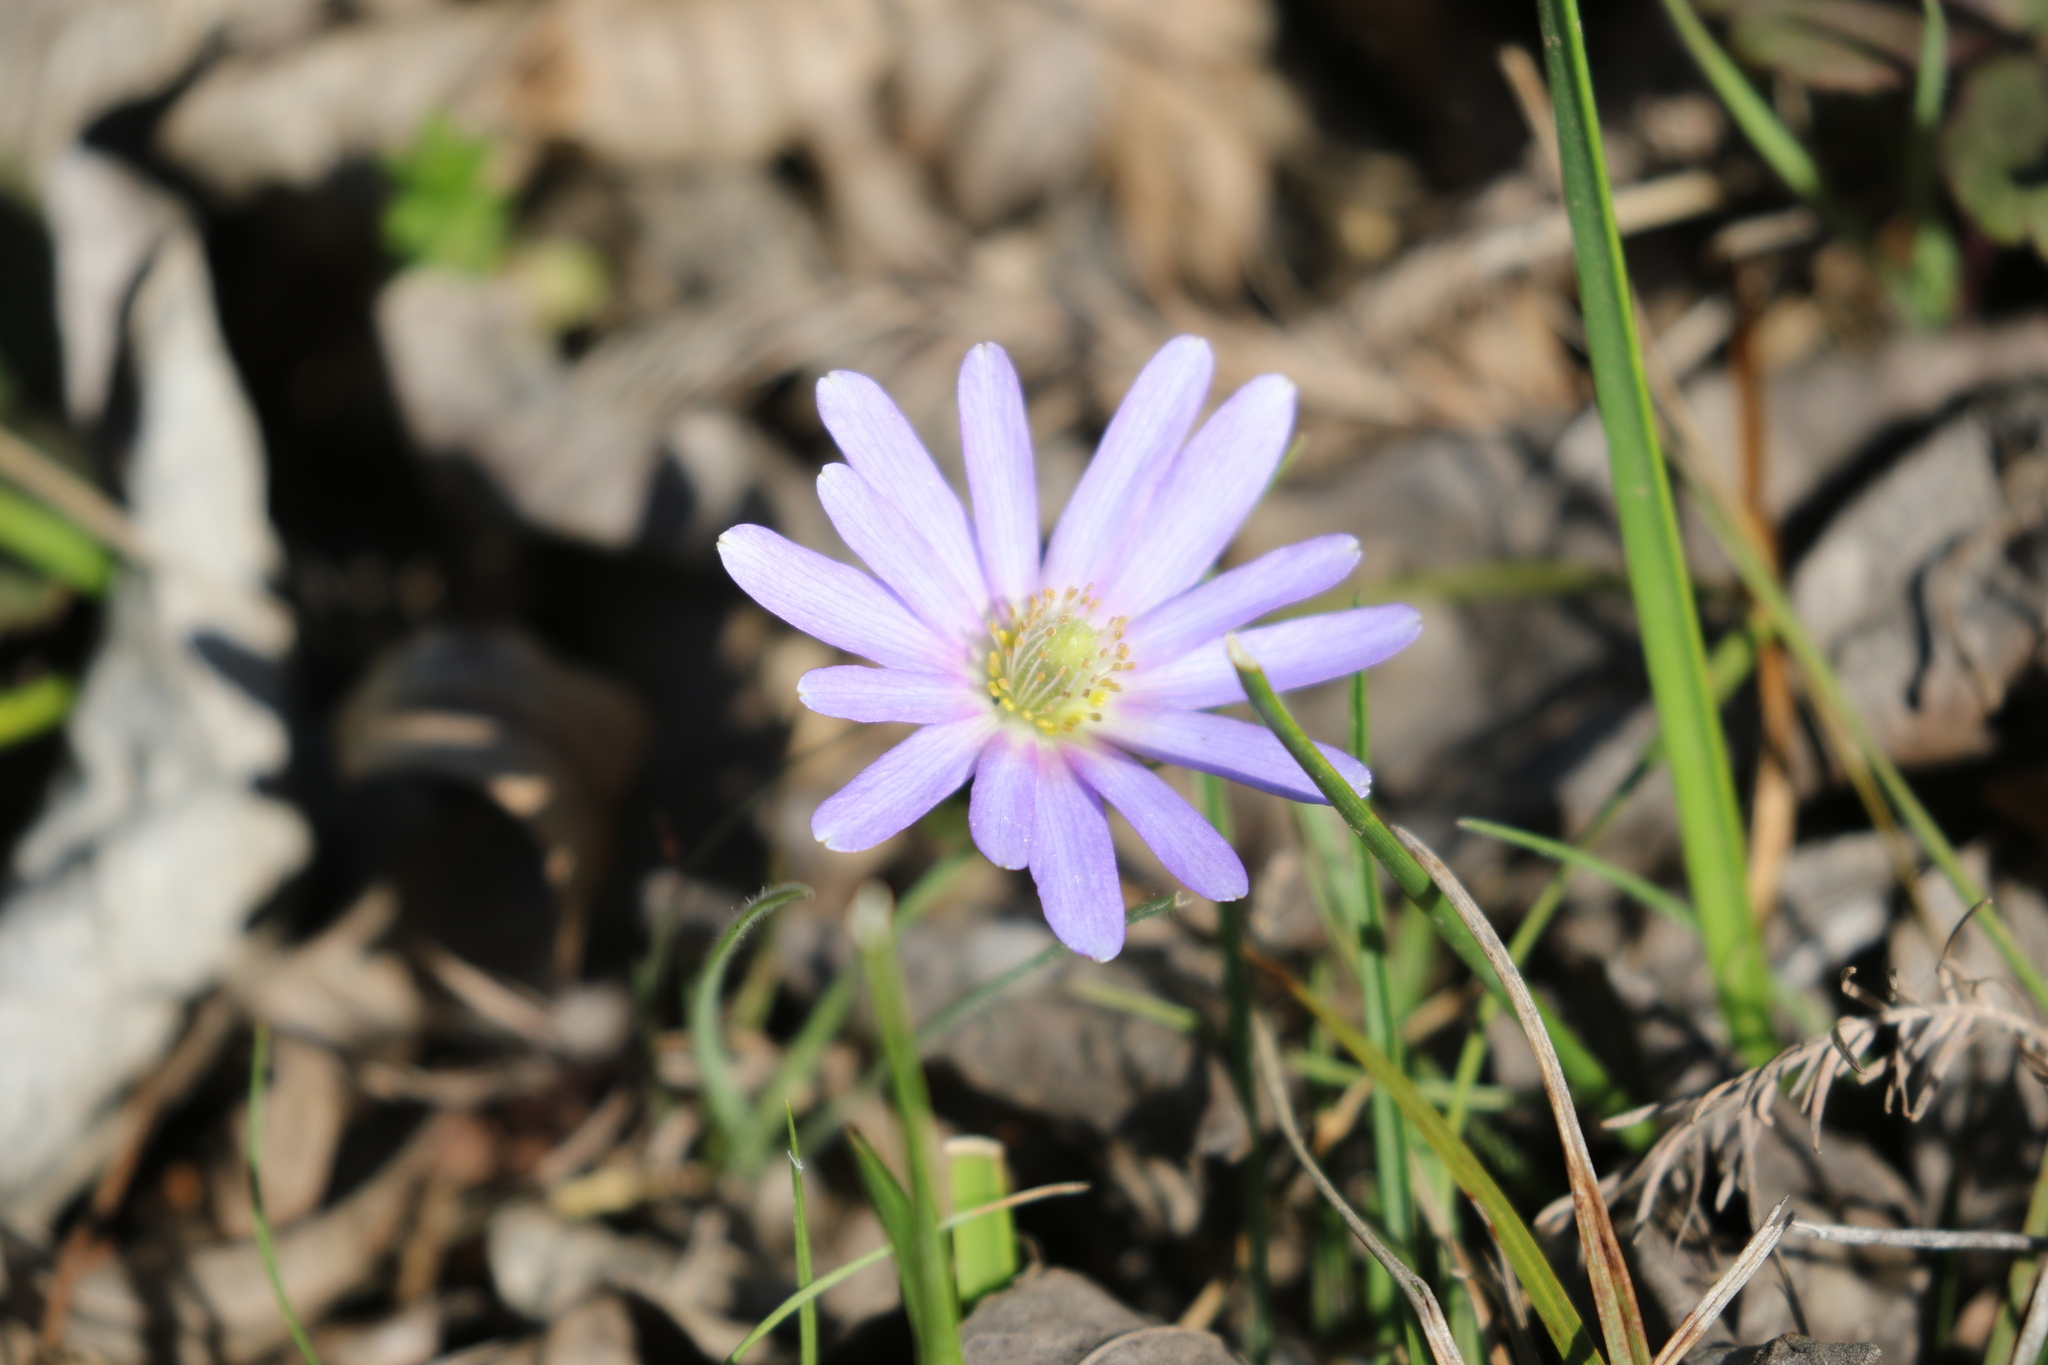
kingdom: Plantae
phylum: Tracheophyta
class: Magnoliopsida
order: Ranunculales
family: Ranunculaceae
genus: Anemone
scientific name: Anemone berlandieri
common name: Ten-petal anemone
